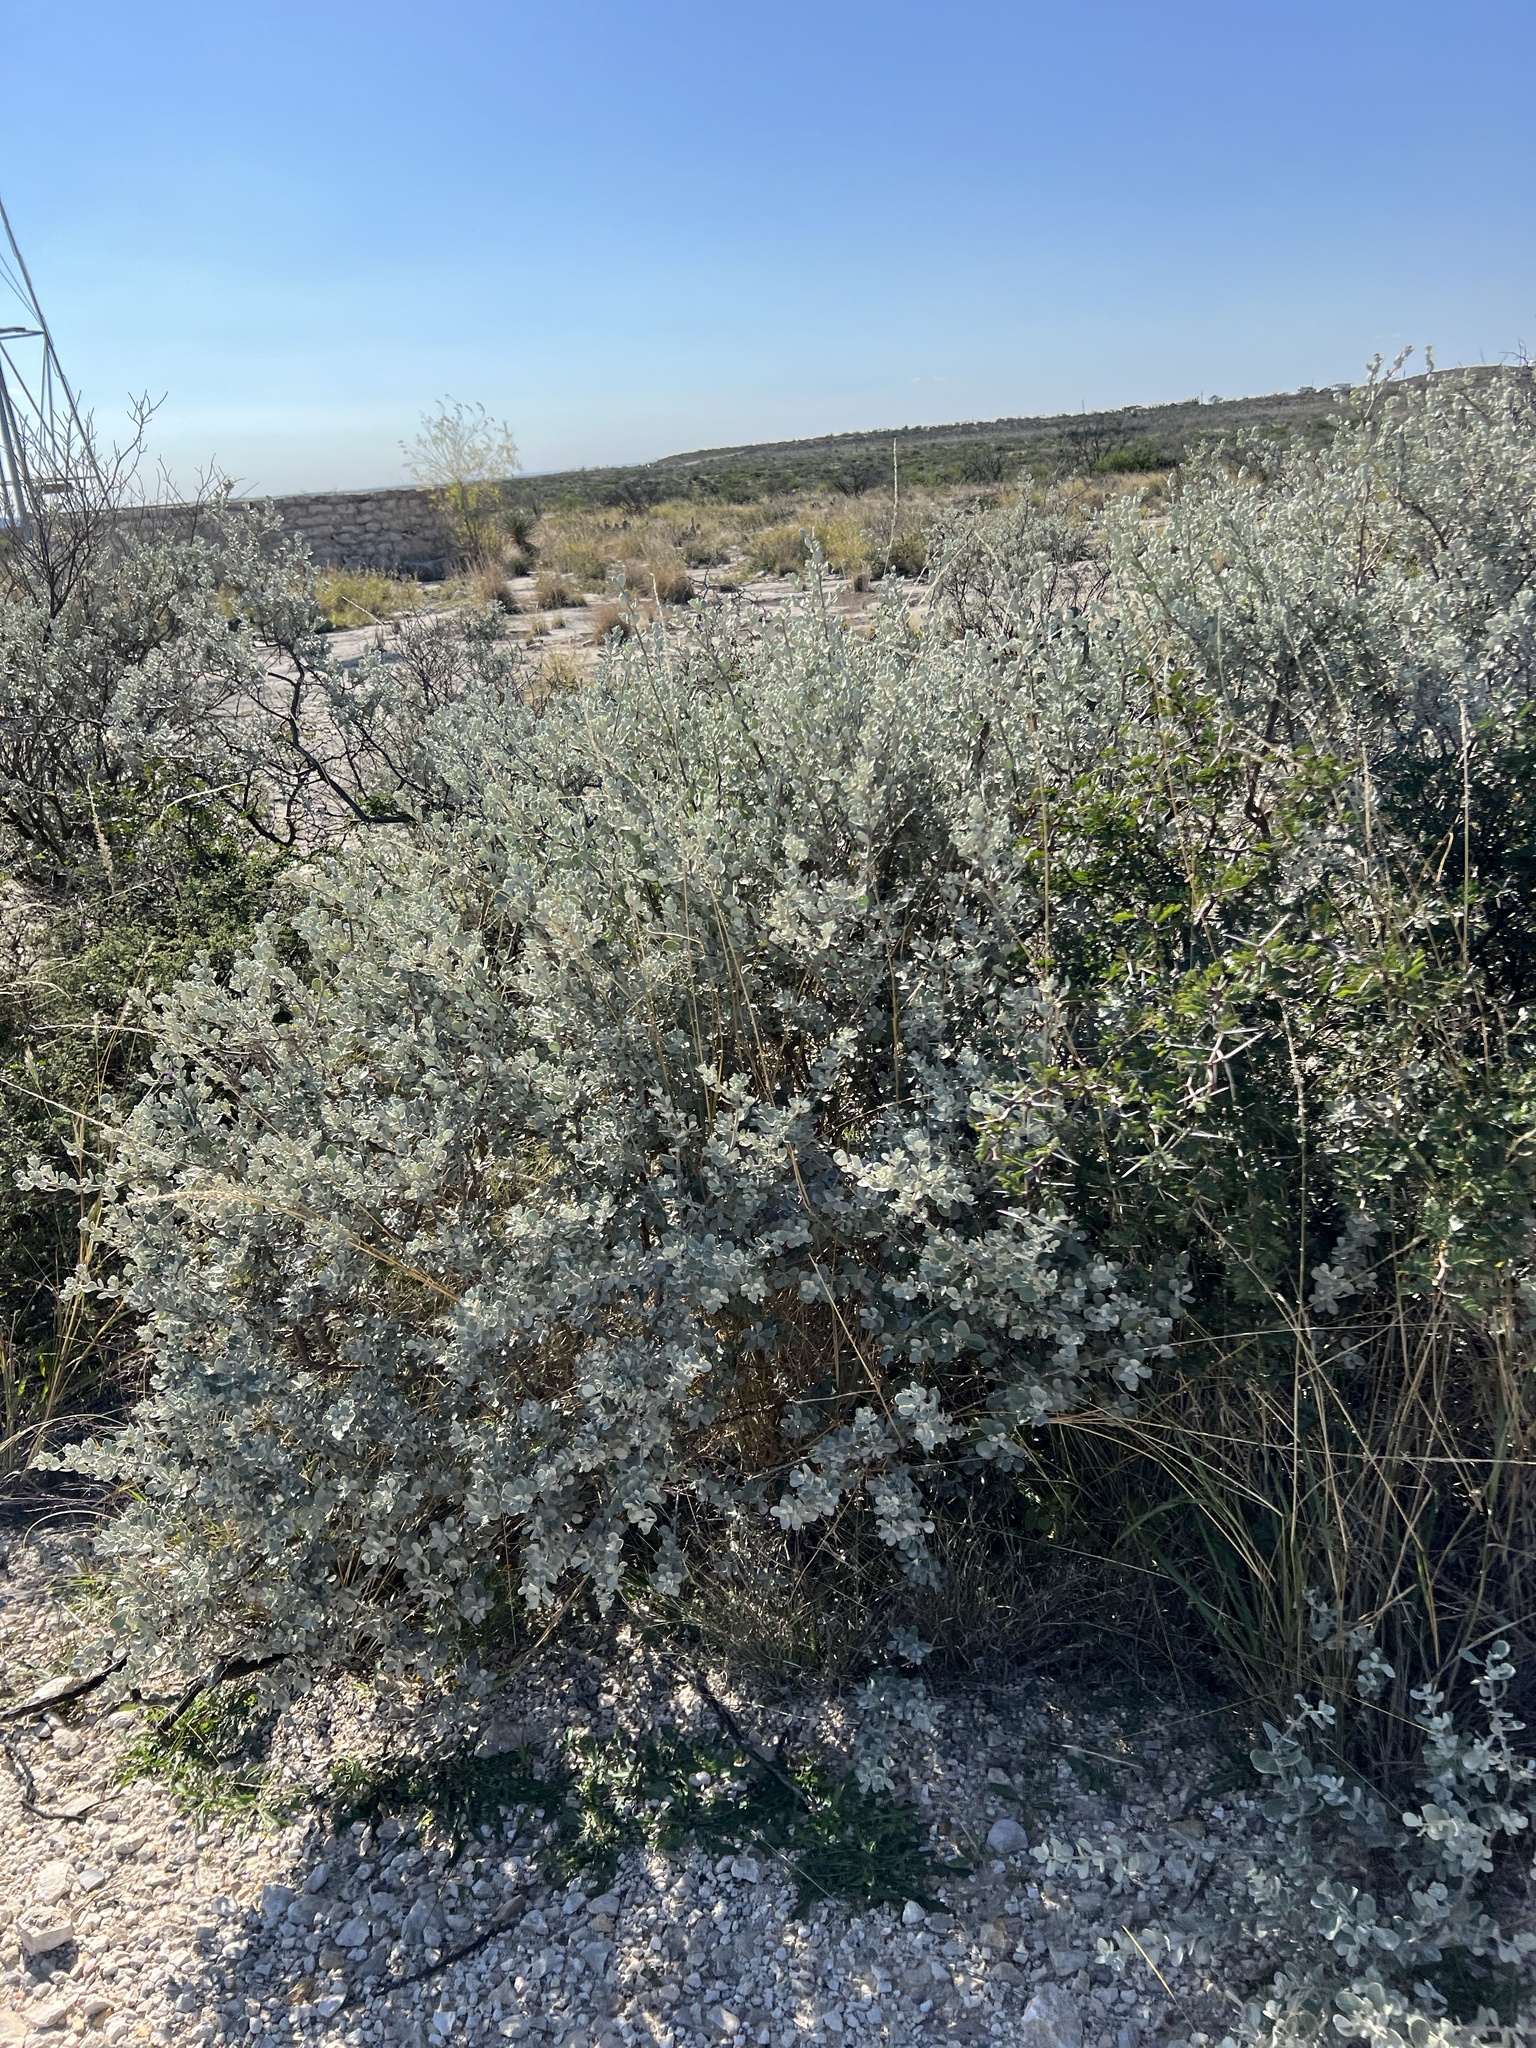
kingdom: Plantae
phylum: Tracheophyta
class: Magnoliopsida
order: Lamiales
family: Scrophulariaceae
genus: Leucophyllum
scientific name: Leucophyllum frutescens
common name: Texas silverleaf
